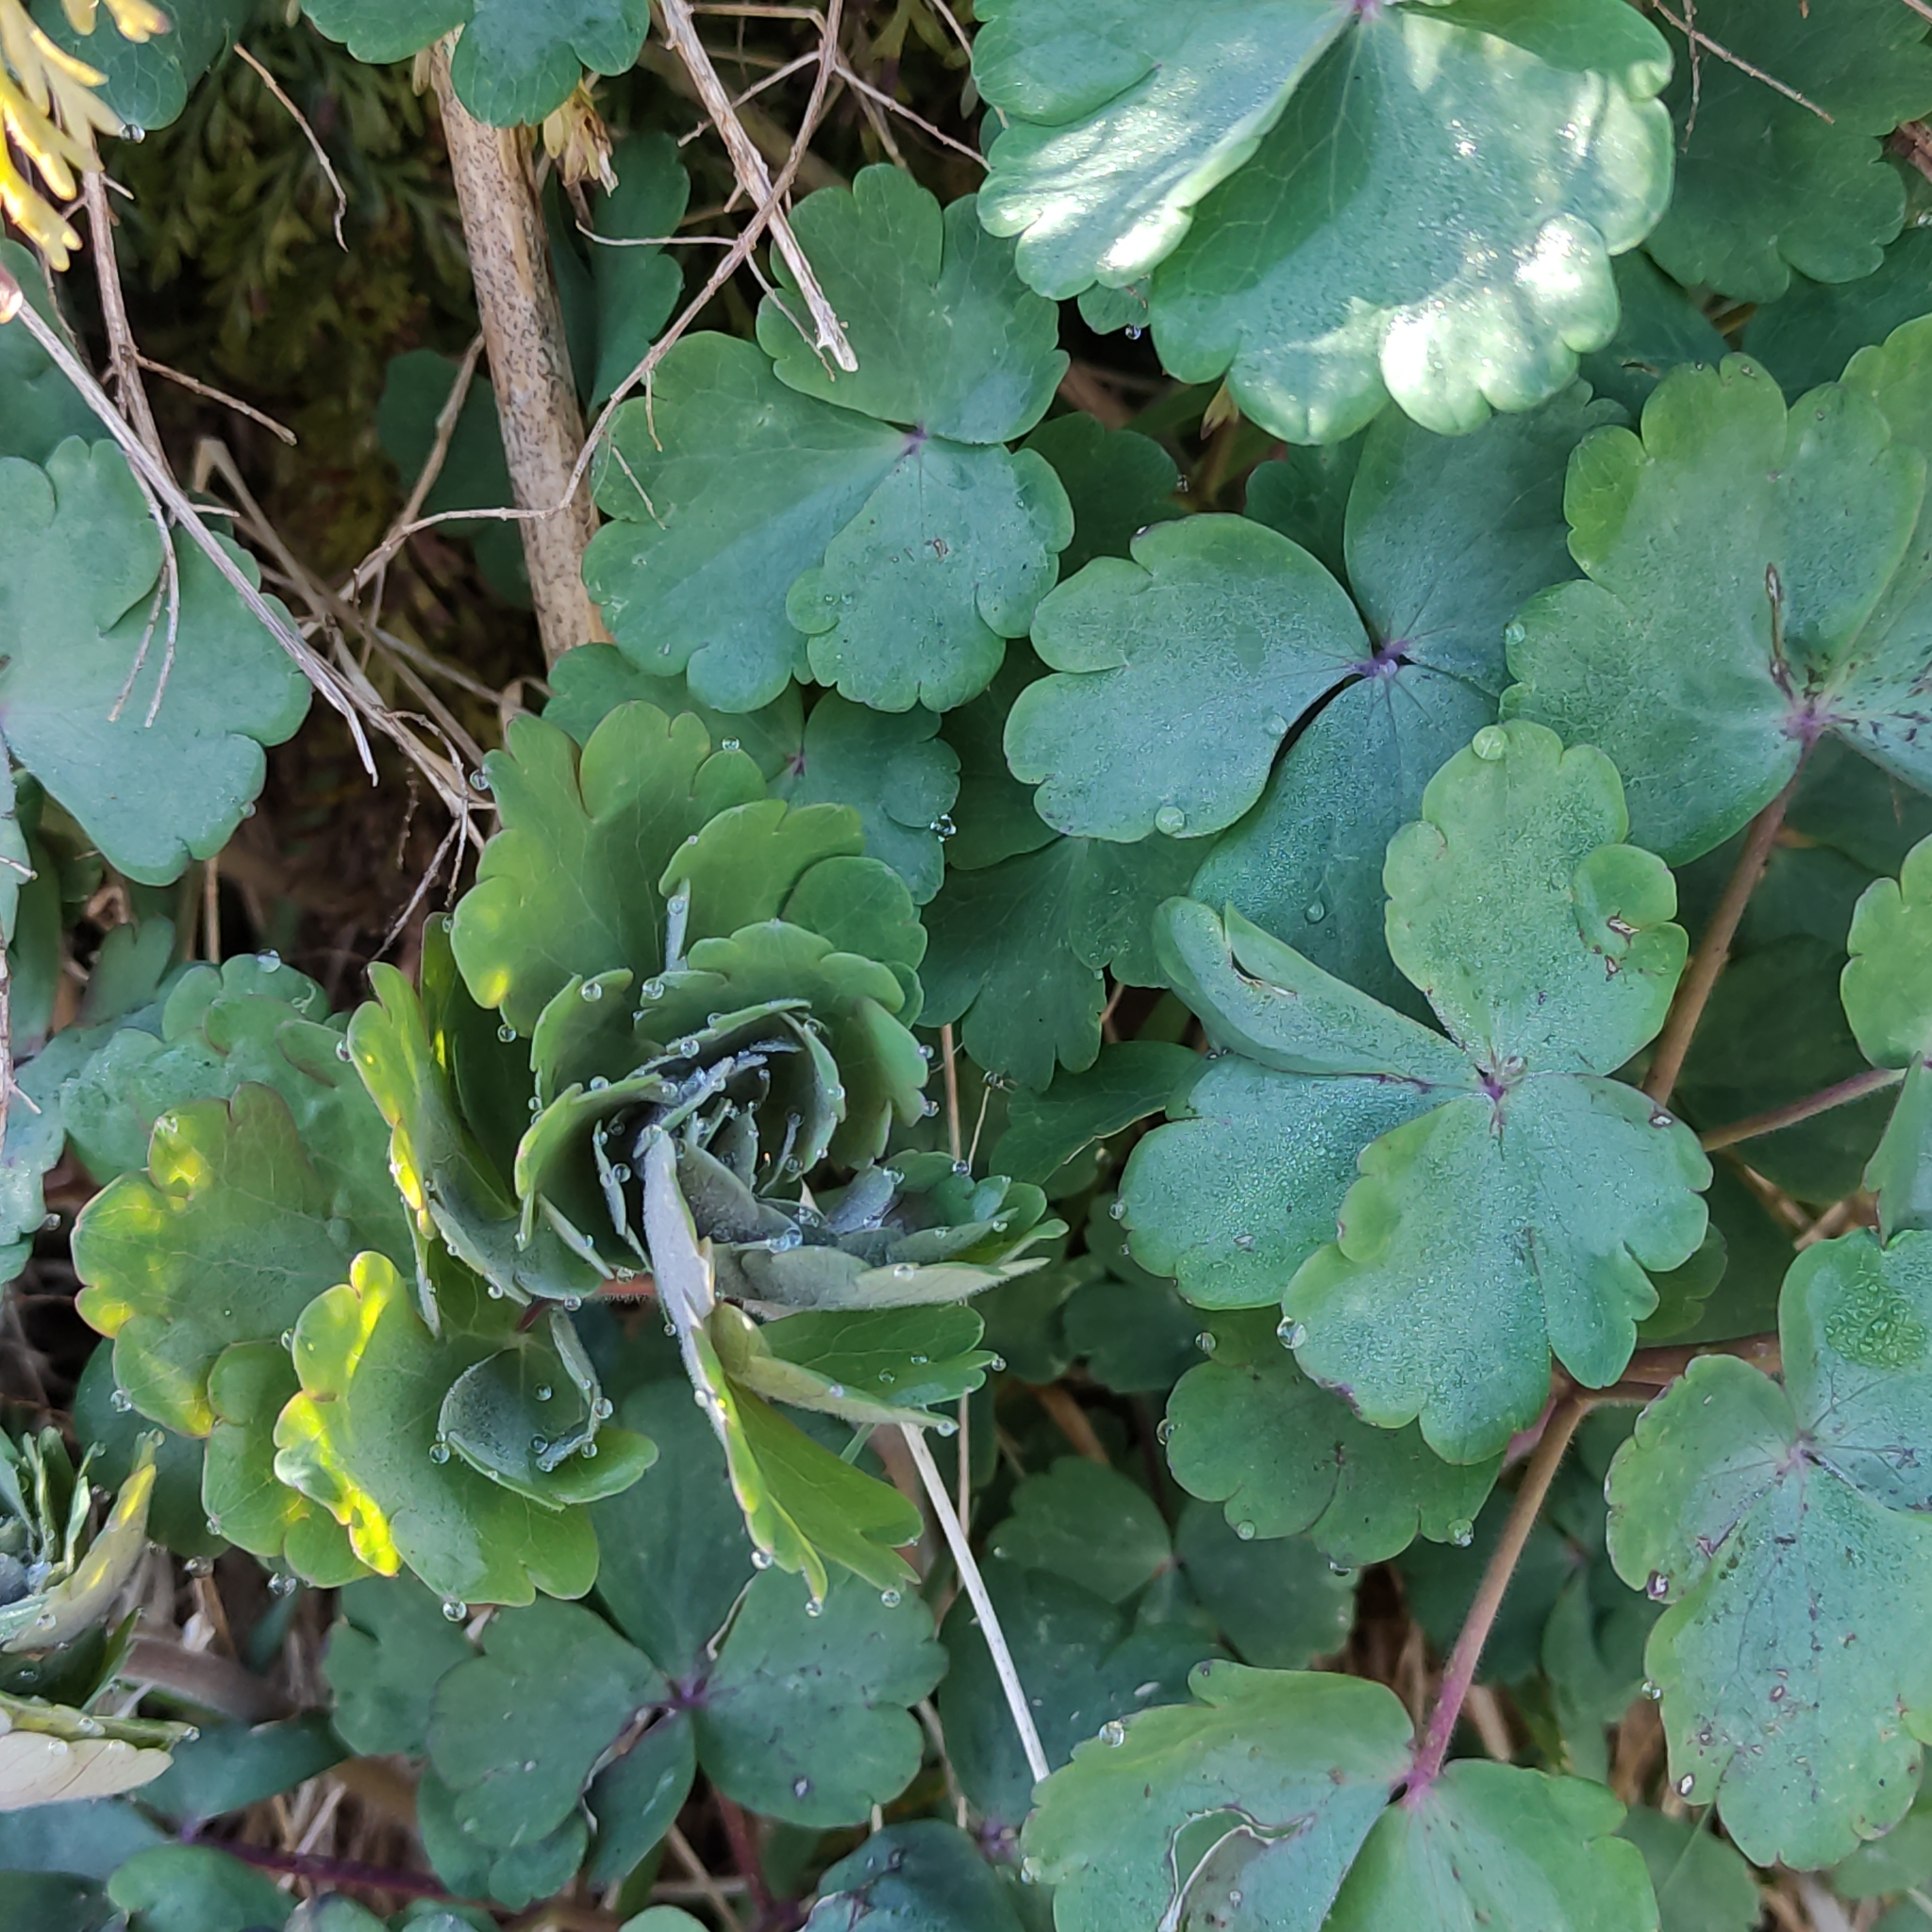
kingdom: Plantae
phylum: Tracheophyta
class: Magnoliopsida
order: Ranunculales
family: Ranunculaceae
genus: Aquilegia
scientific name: Aquilegia vulgaris
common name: Columbine
